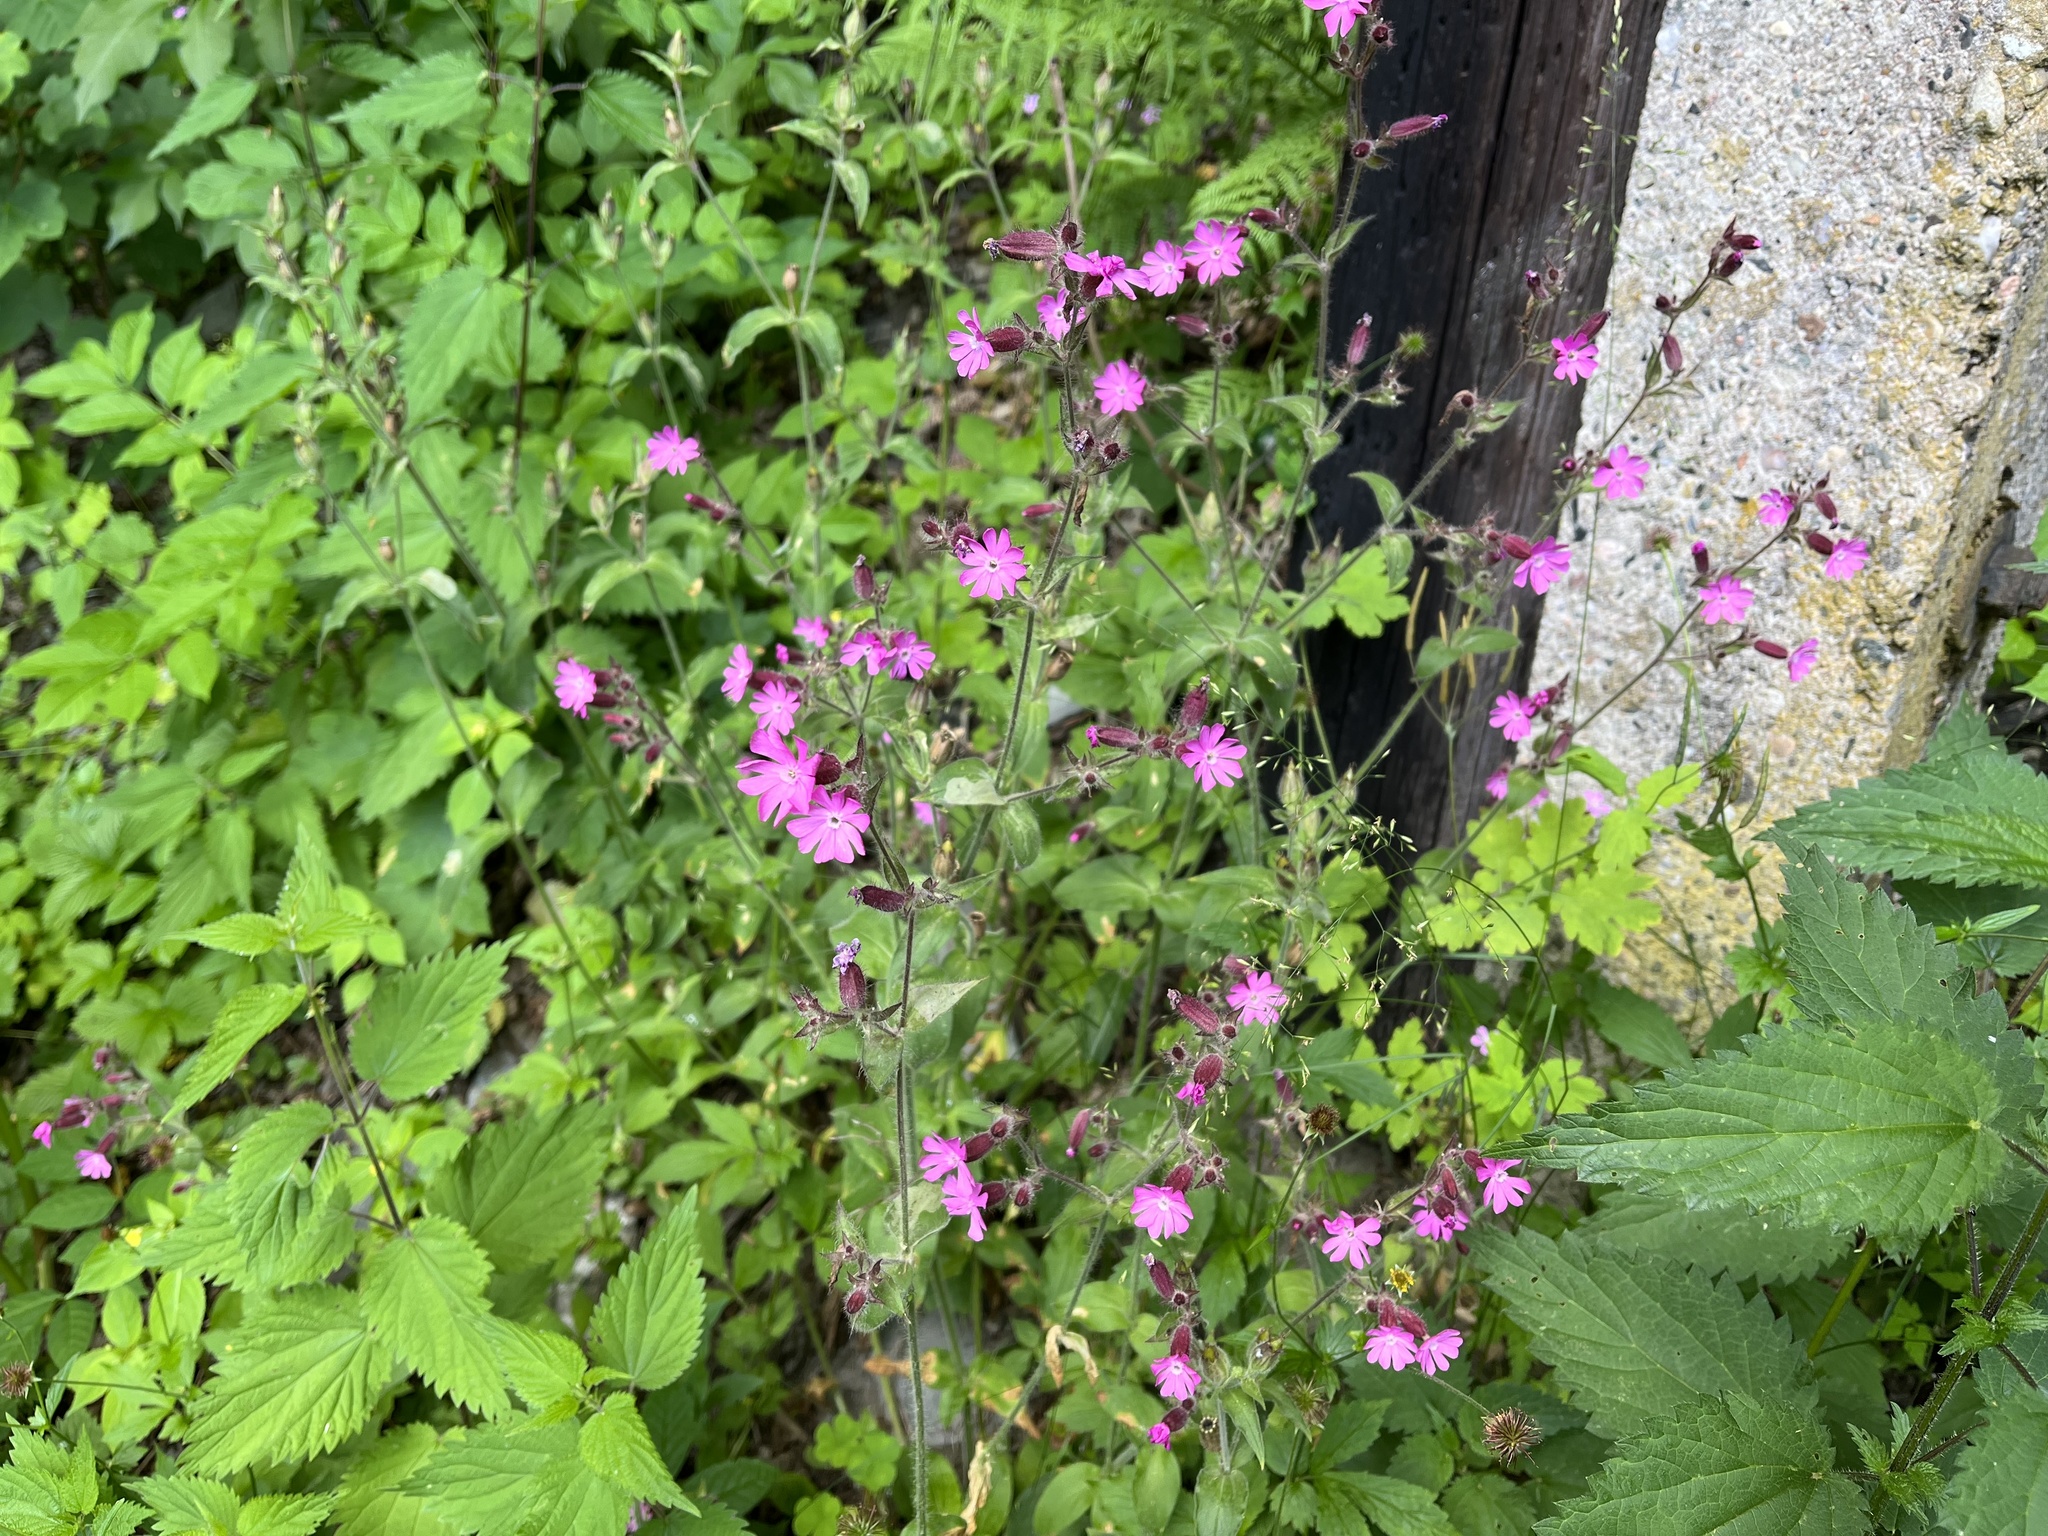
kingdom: Plantae
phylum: Tracheophyta
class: Magnoliopsida
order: Caryophyllales
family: Caryophyllaceae
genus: Silene
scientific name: Silene dioica
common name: Red campion
